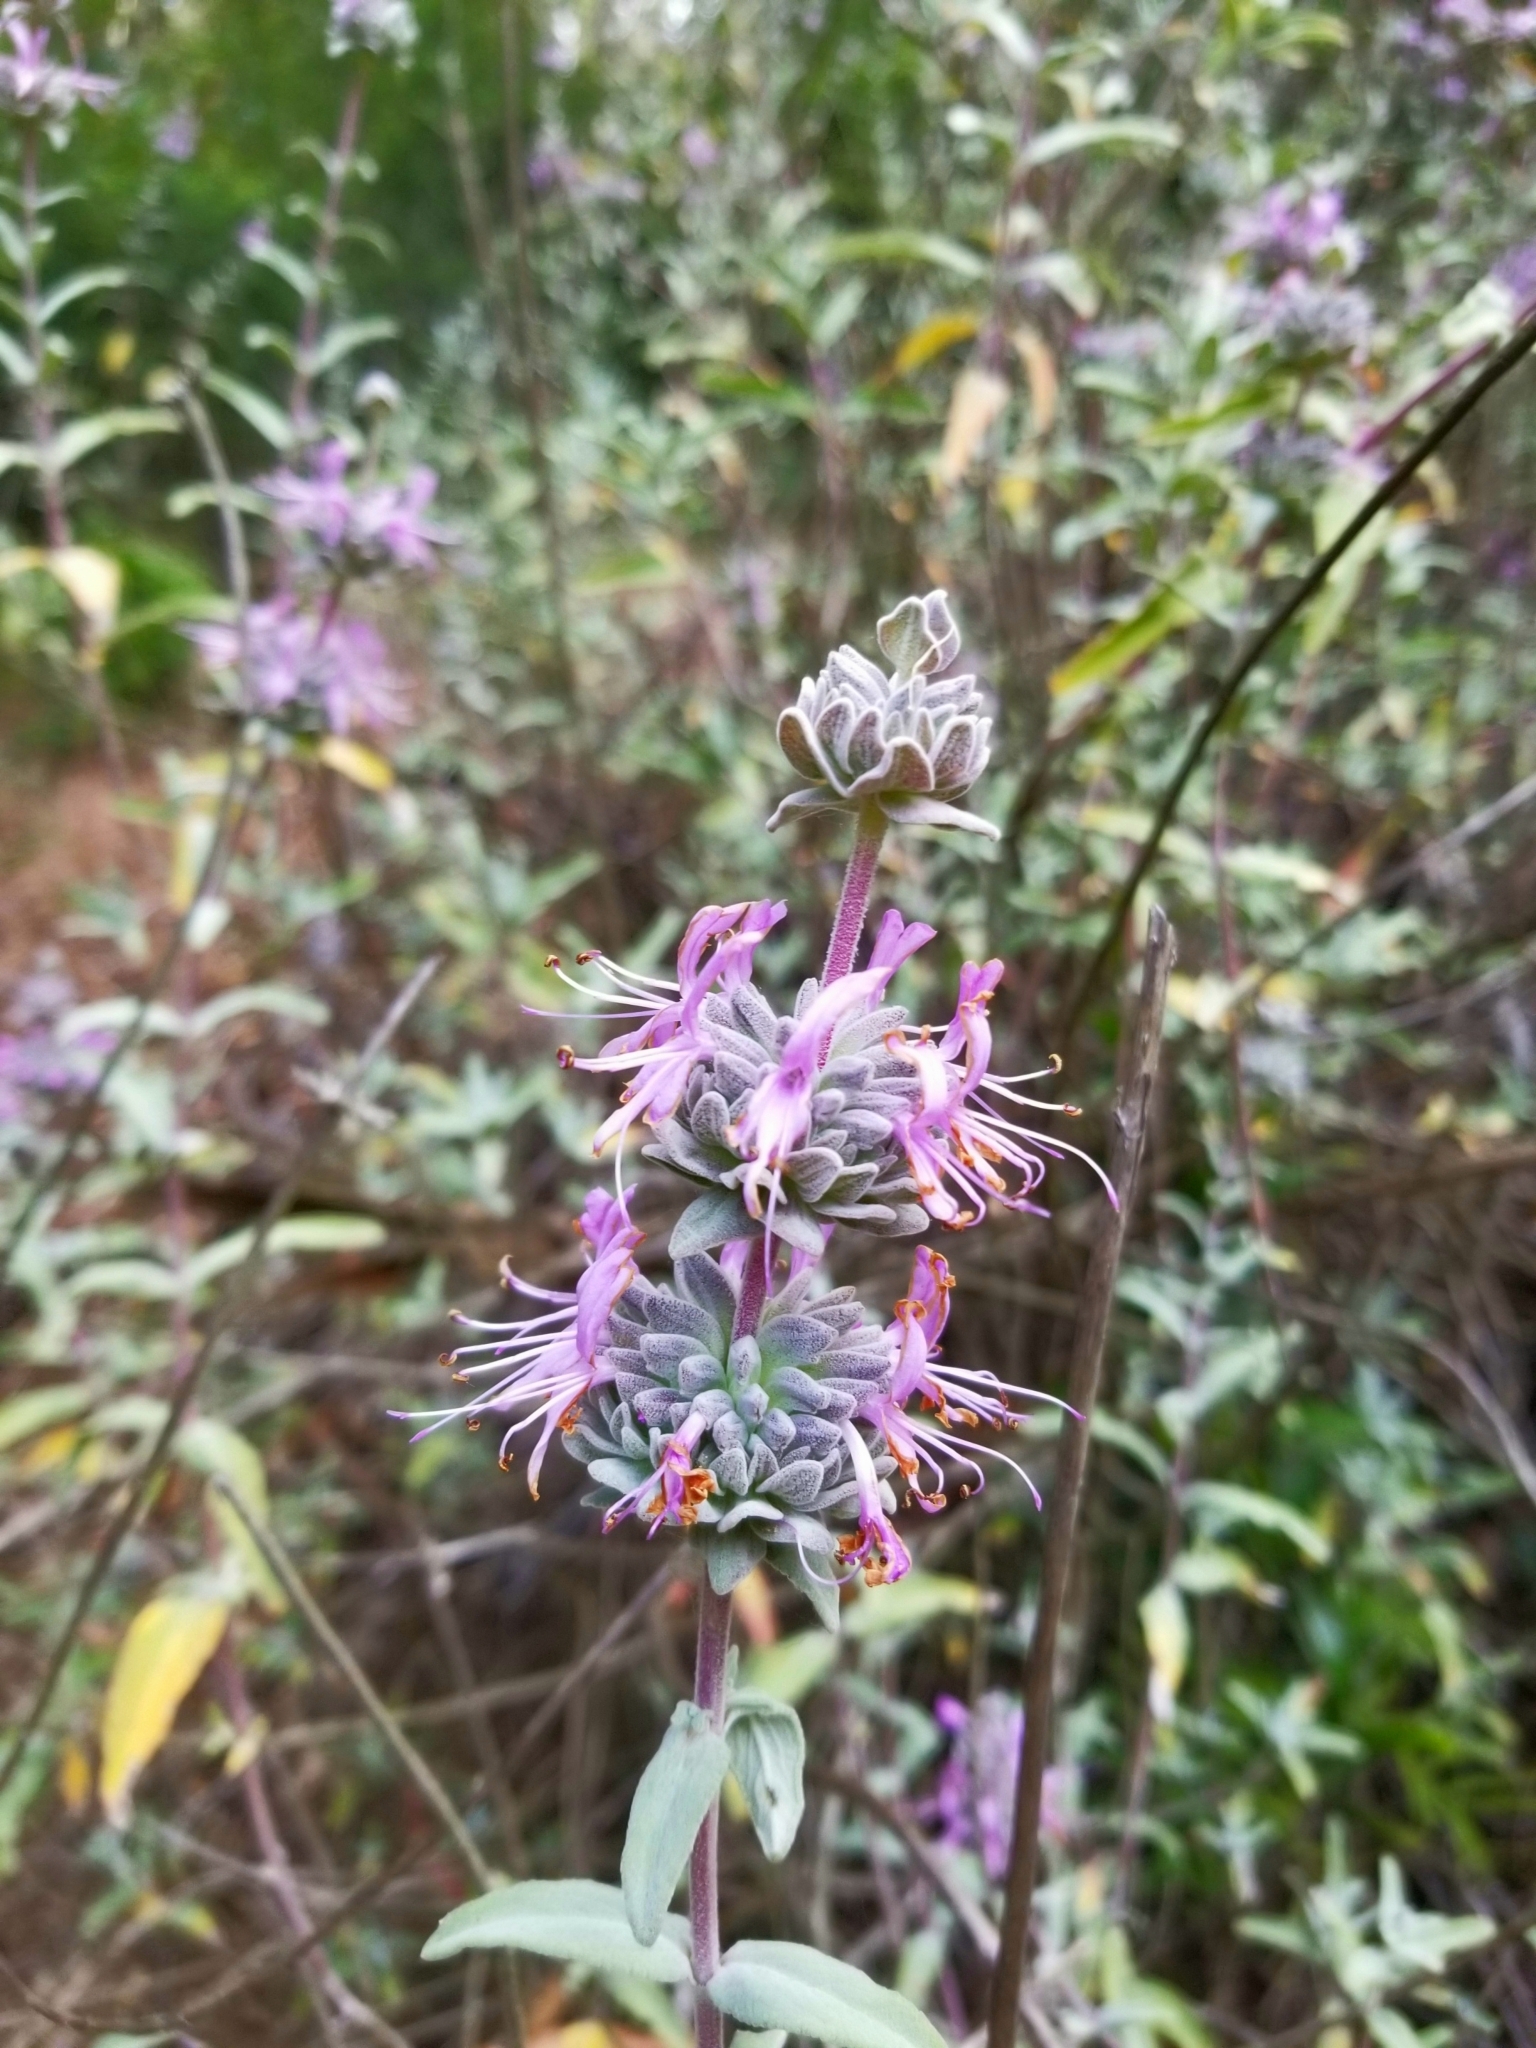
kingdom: Plantae
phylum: Tracheophyta
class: Magnoliopsida
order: Lamiales
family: Lamiaceae
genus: Salvia
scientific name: Salvia leucophylla
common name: Purple sage
